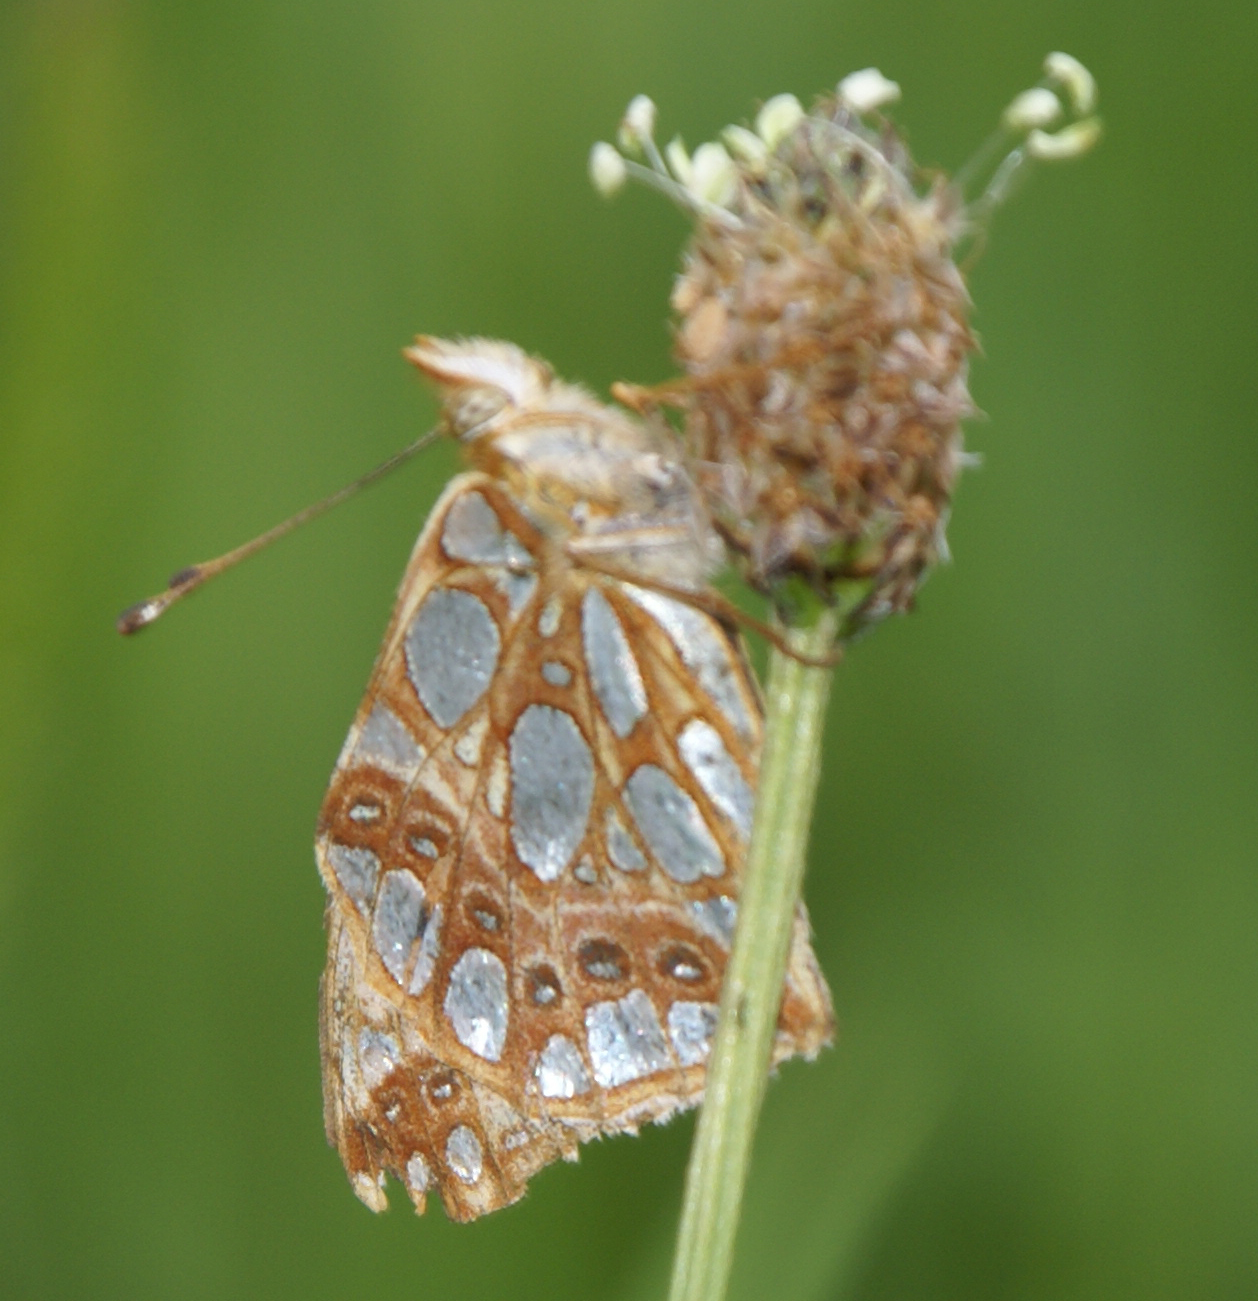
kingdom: Animalia
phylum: Arthropoda
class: Insecta
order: Lepidoptera
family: Nymphalidae
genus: Issoria
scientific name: Issoria lathonia
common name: Queen of spain fritillary
